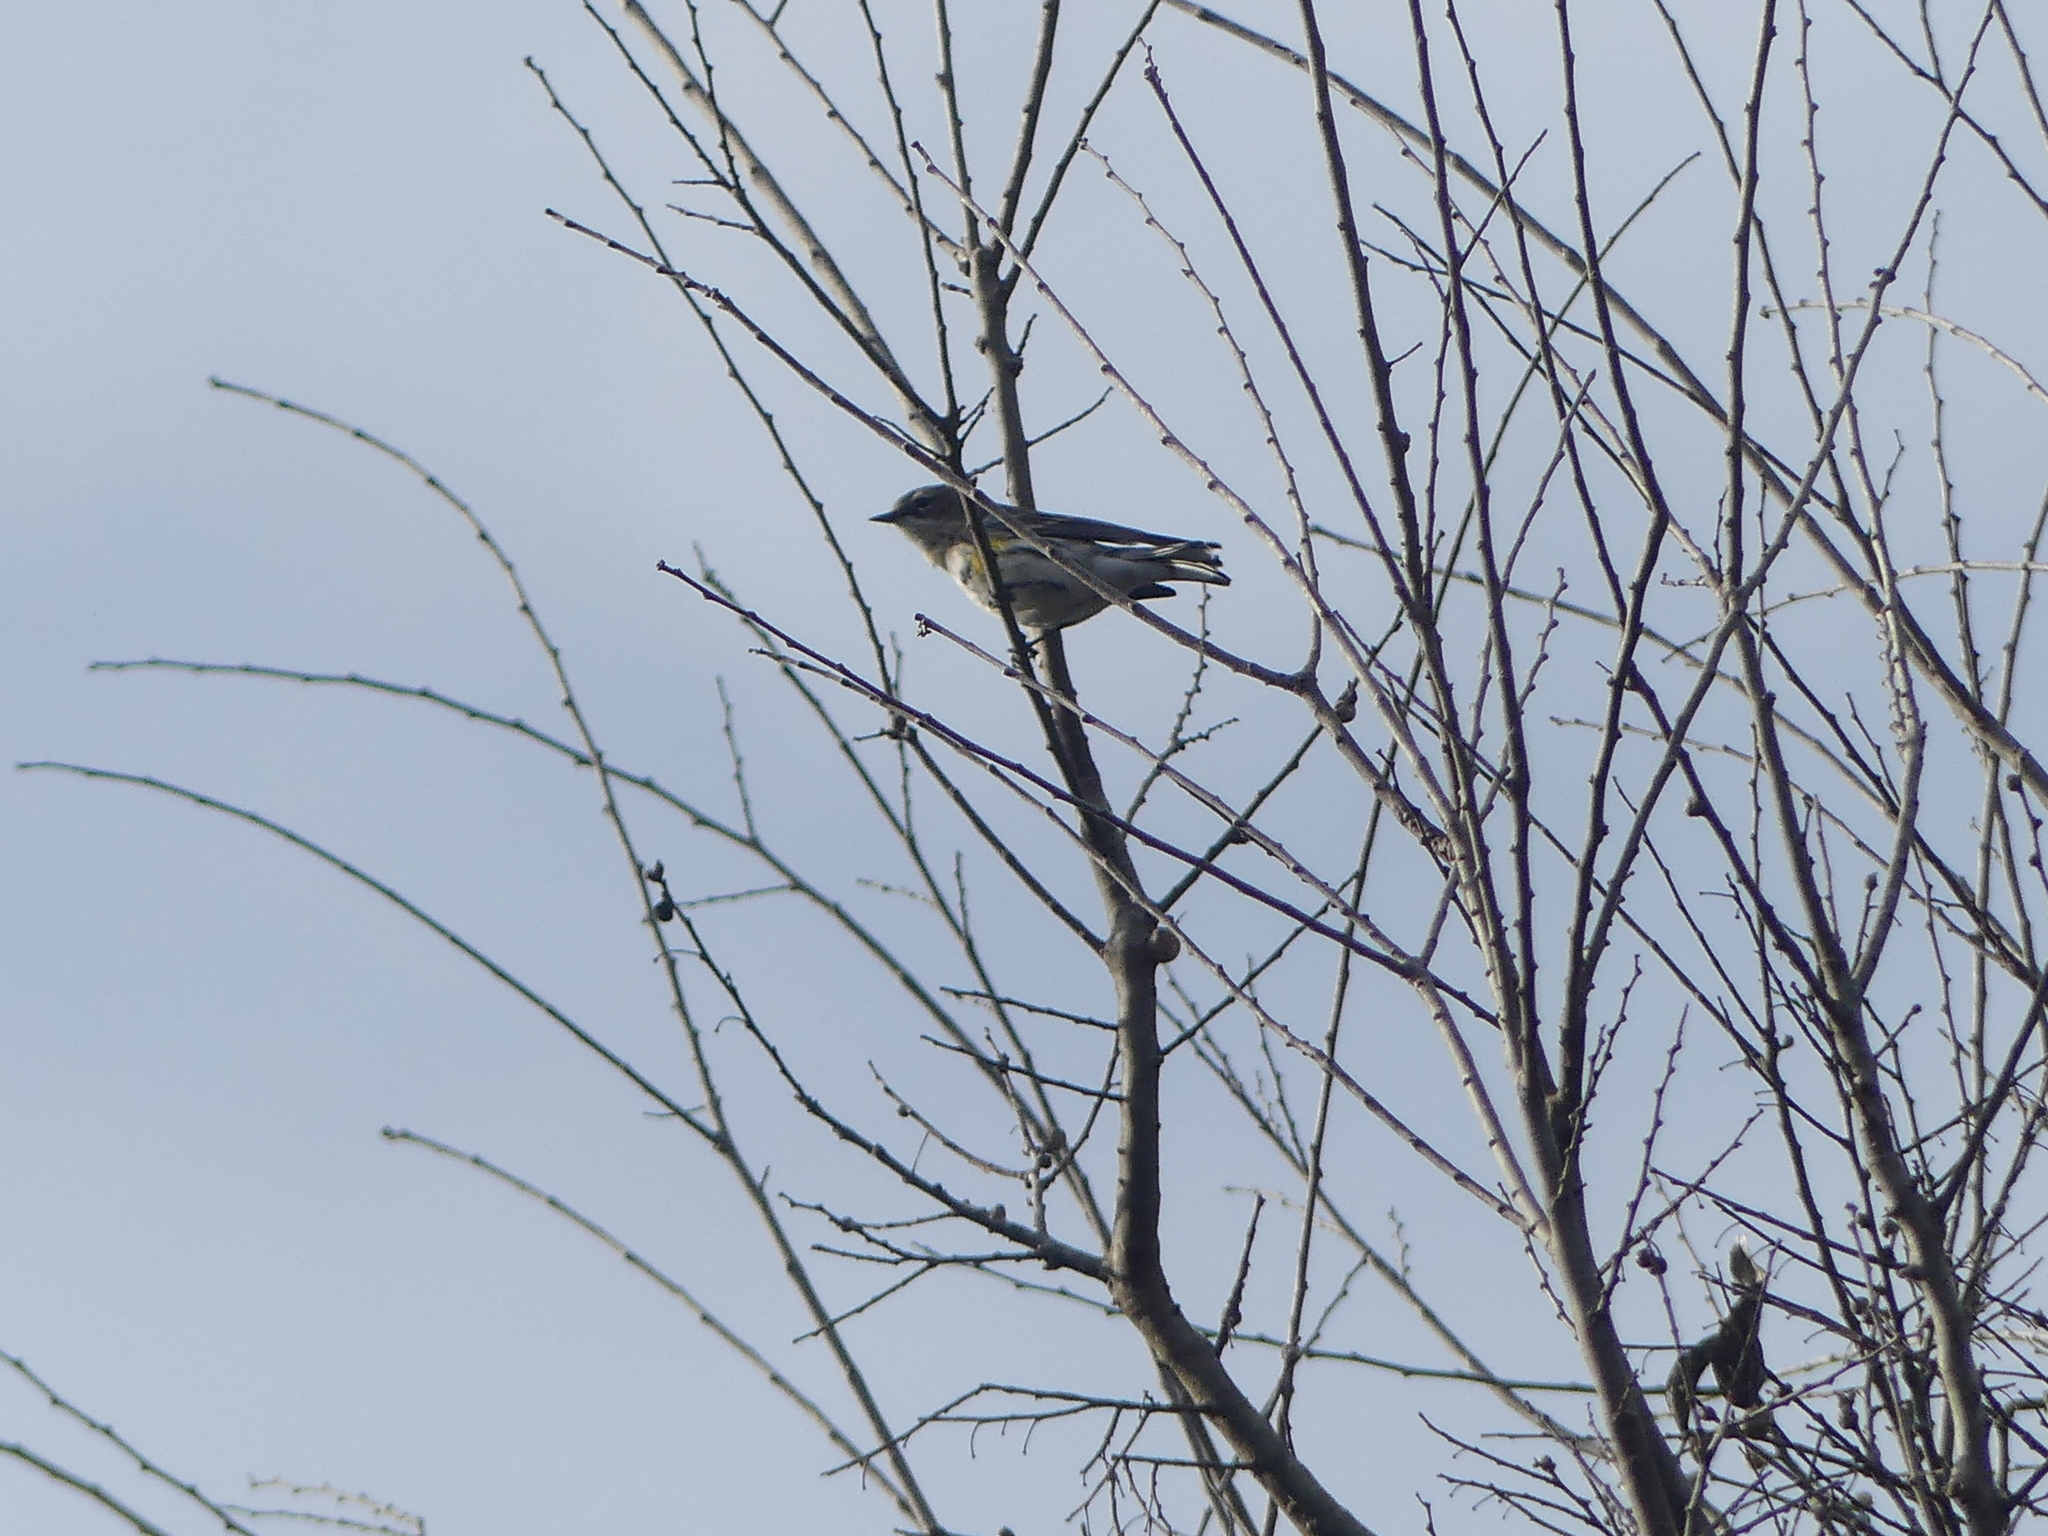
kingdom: Animalia
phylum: Chordata
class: Aves
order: Passeriformes
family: Parulidae
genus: Setophaga
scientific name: Setophaga coronata
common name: Myrtle warbler
